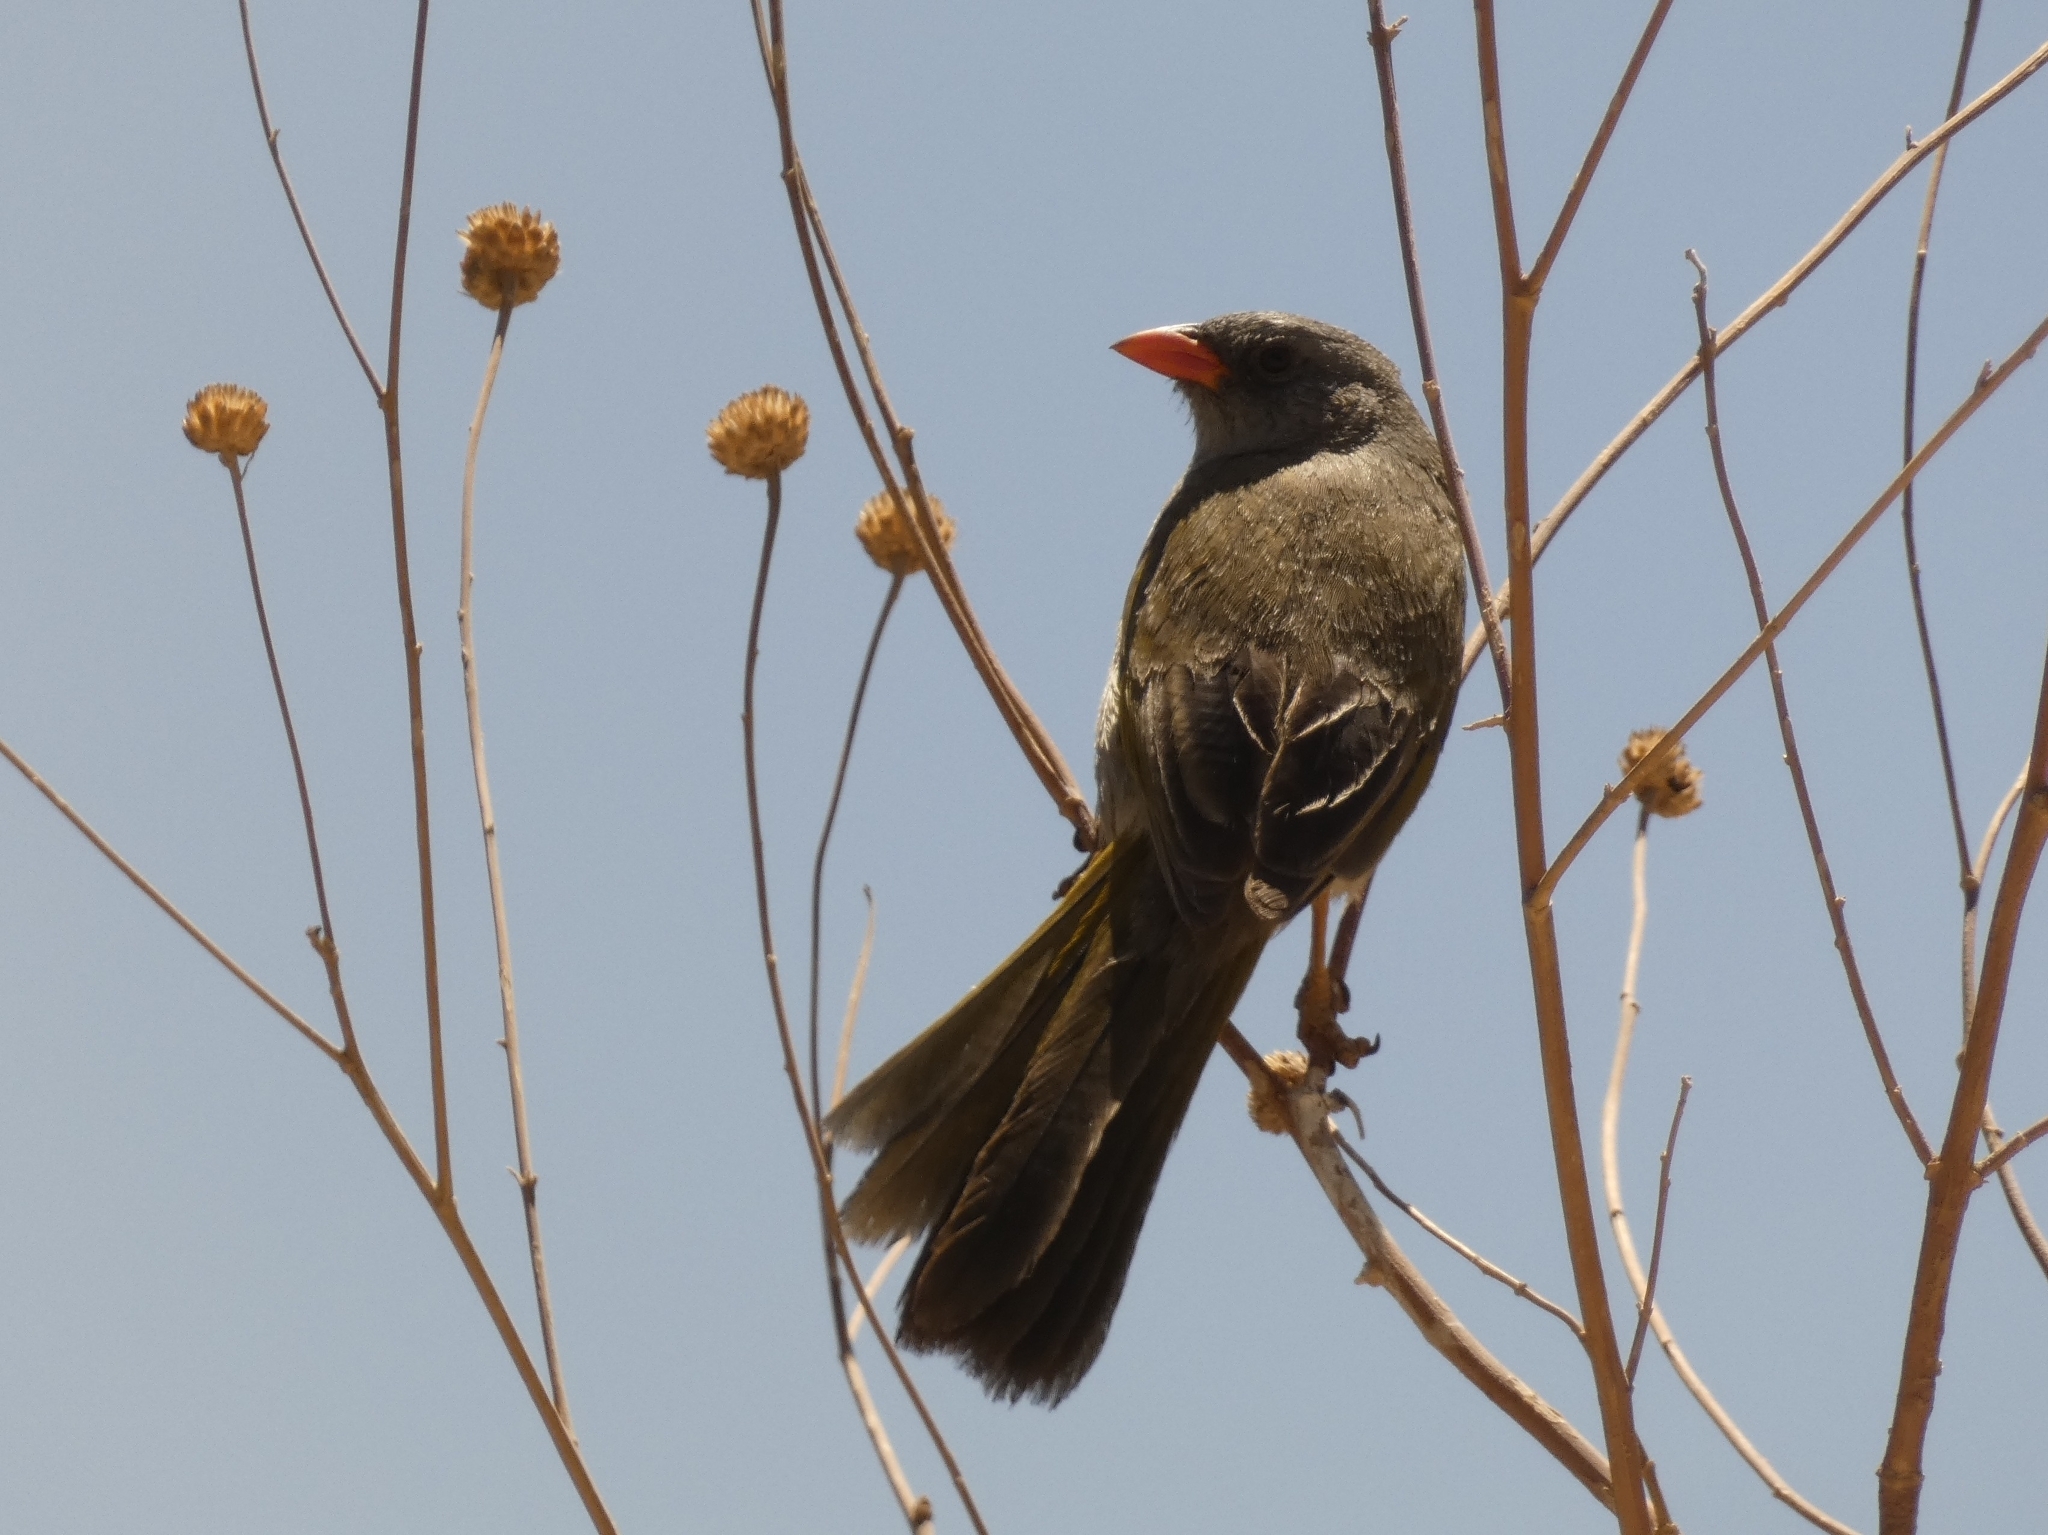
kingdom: Animalia
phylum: Chordata
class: Aves
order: Passeriformes
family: Thraupidae
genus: Embernagra
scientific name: Embernagra platensis
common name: Pampa finch
